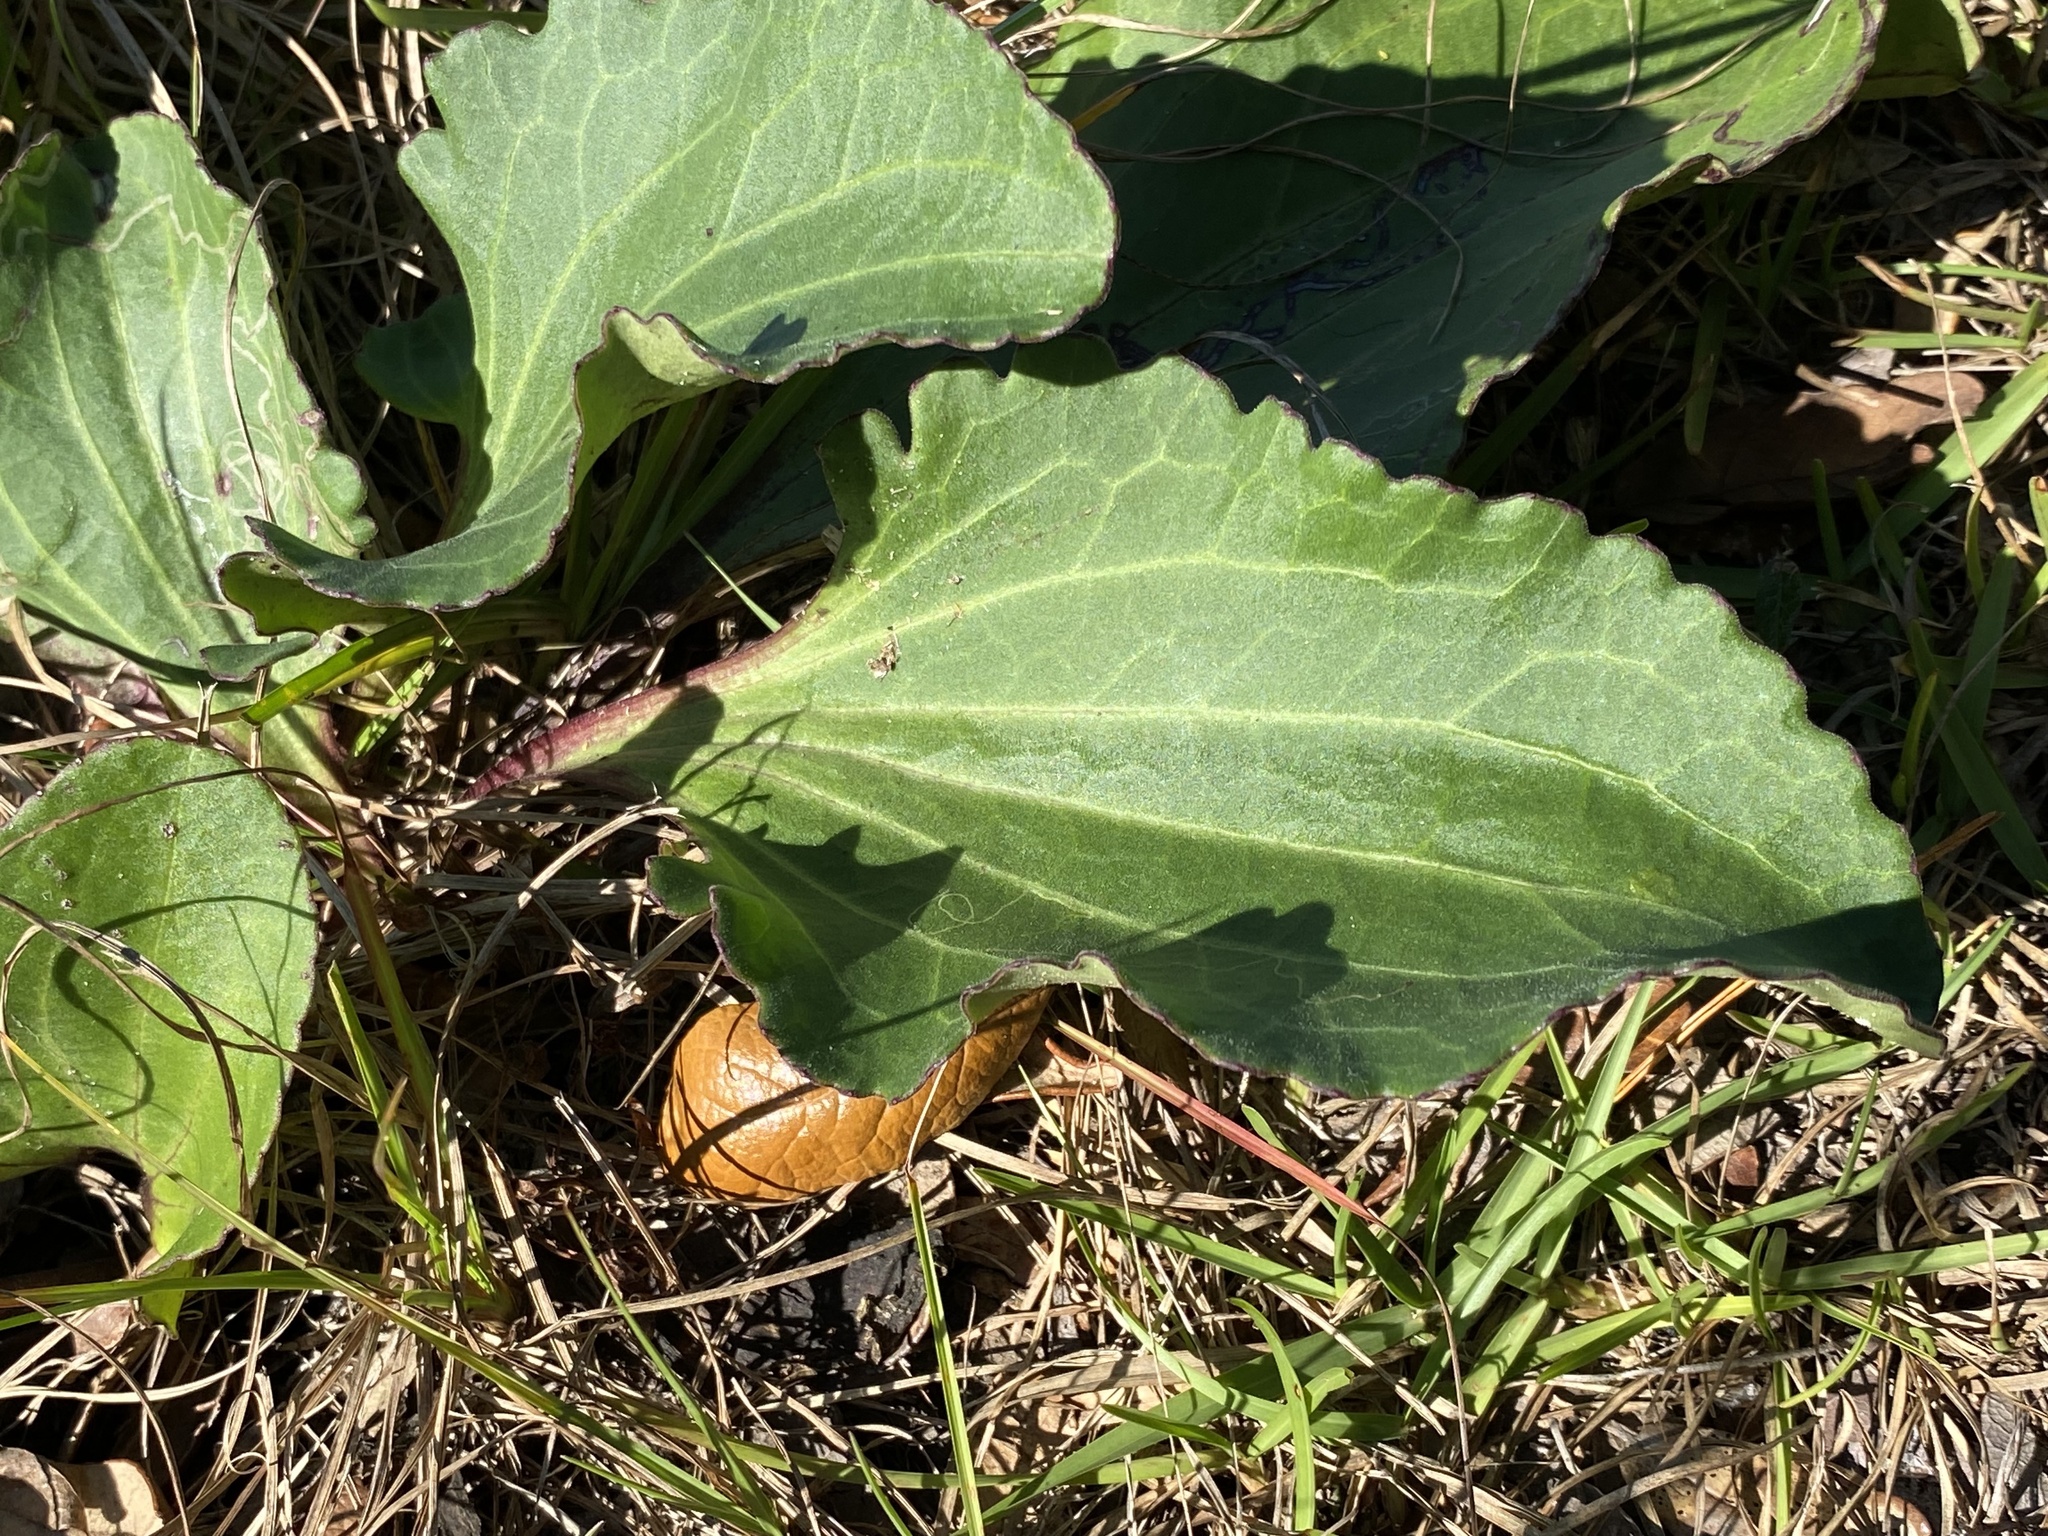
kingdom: Plantae
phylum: Tracheophyta
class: Magnoliopsida
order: Asterales
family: Asteraceae
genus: Arnoglossum
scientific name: Arnoglossum floridanum
